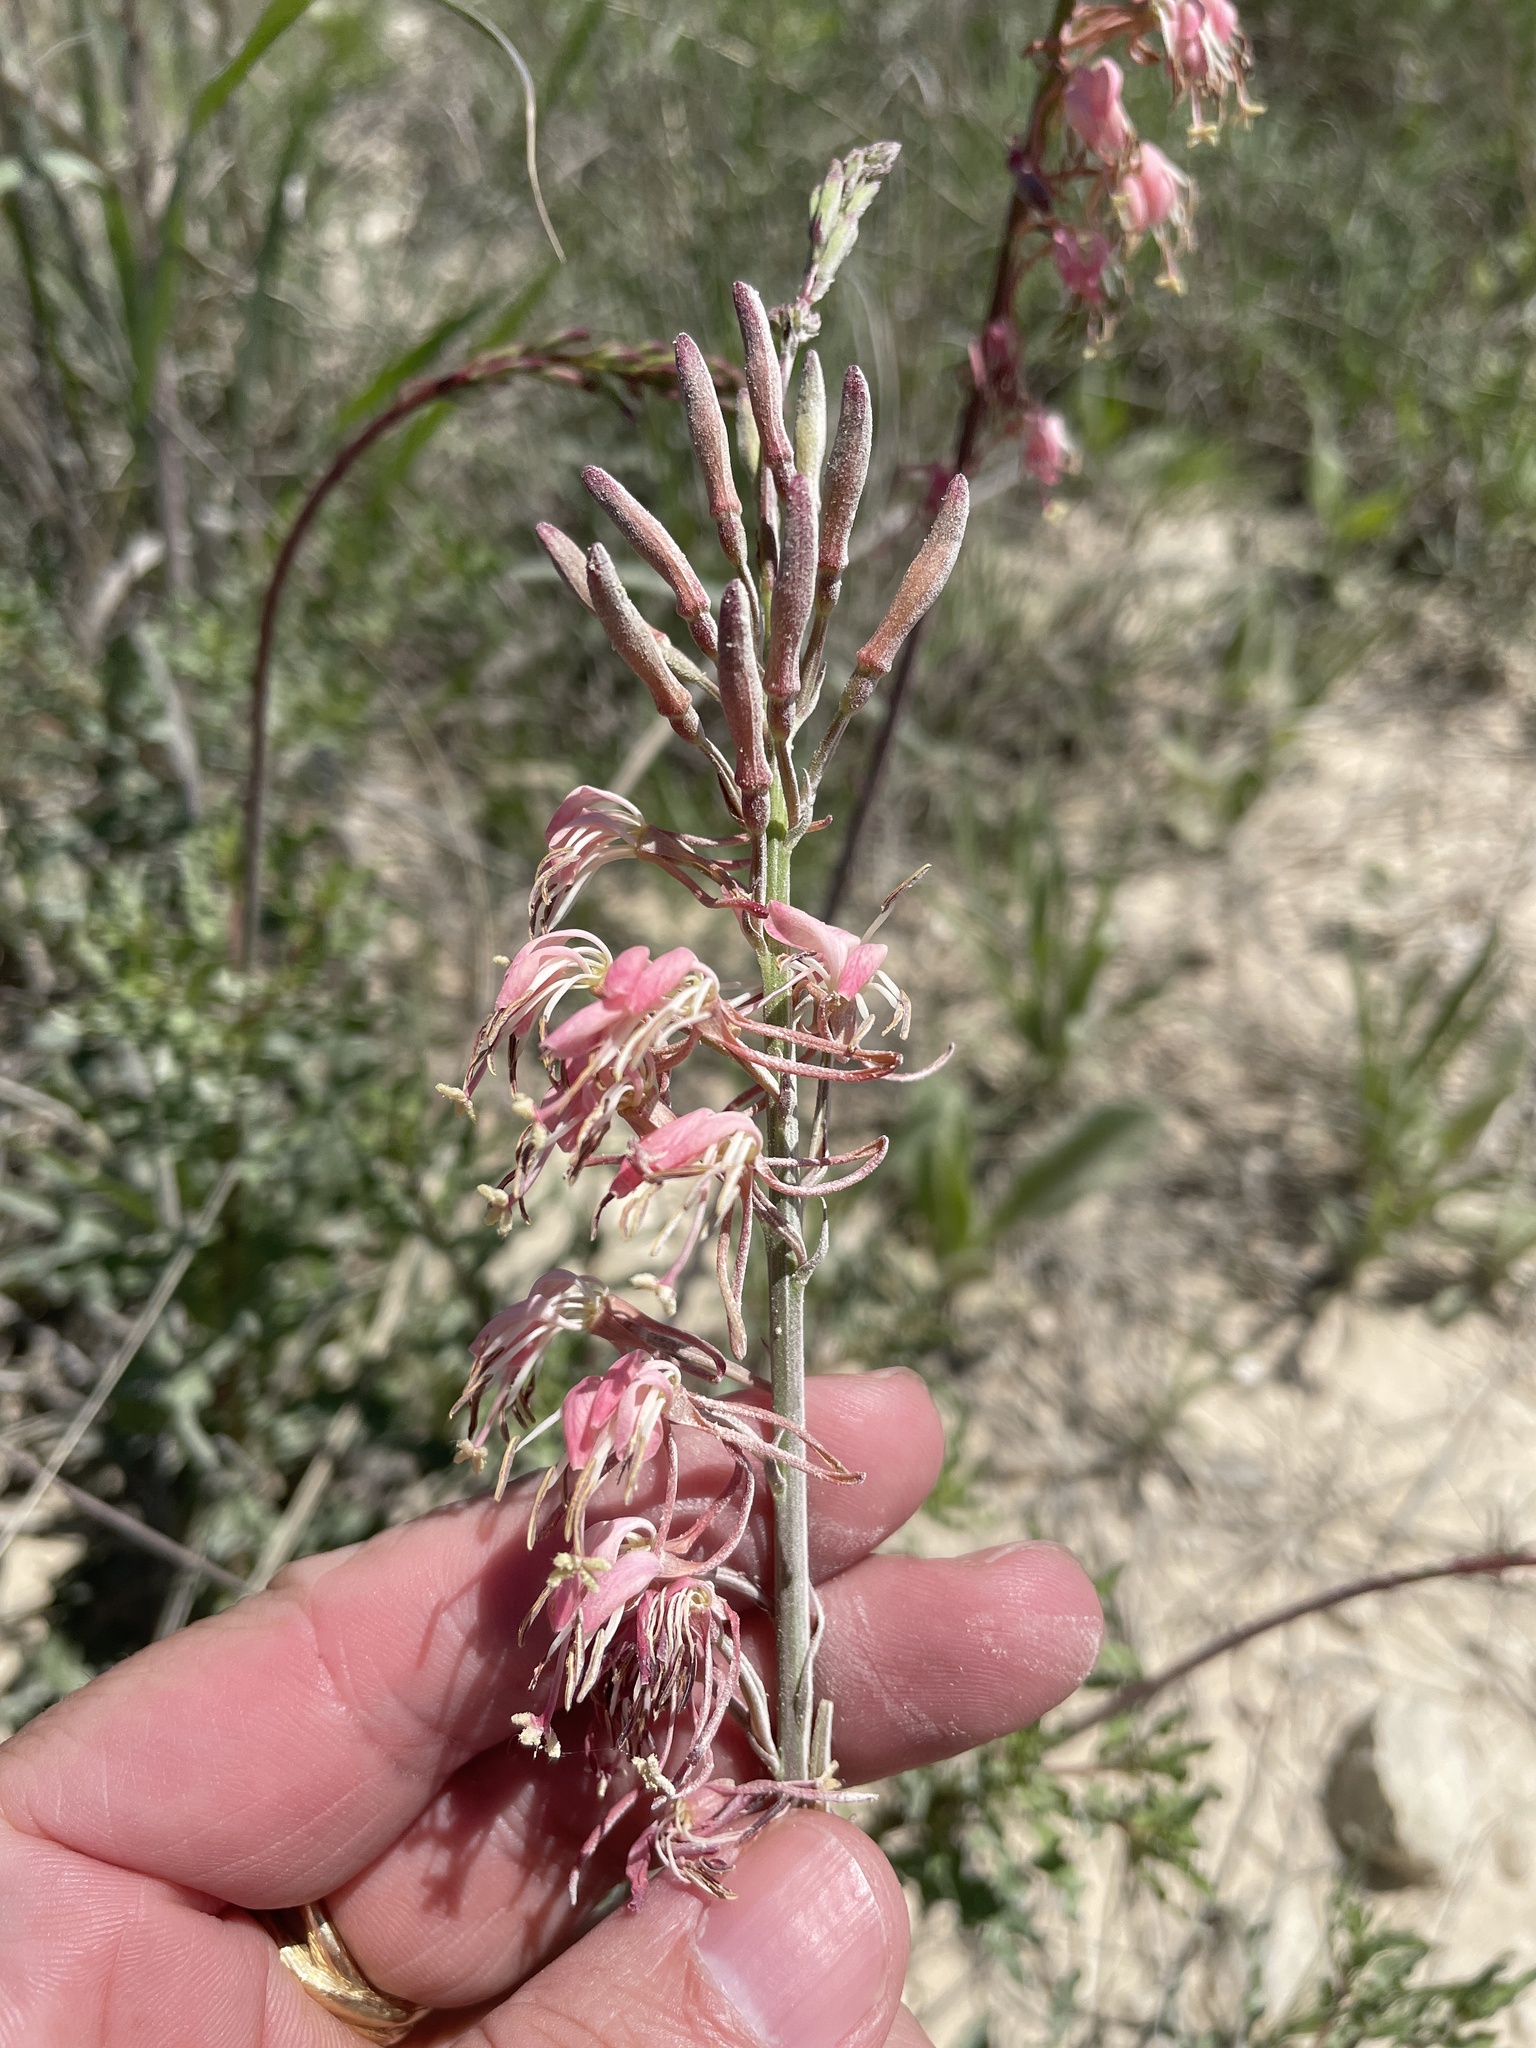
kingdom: Plantae
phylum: Tracheophyta
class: Magnoliopsida
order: Myrtales
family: Onagraceae
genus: Oenothera
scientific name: Oenothera suffrutescens
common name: Scarlet beeblossom
